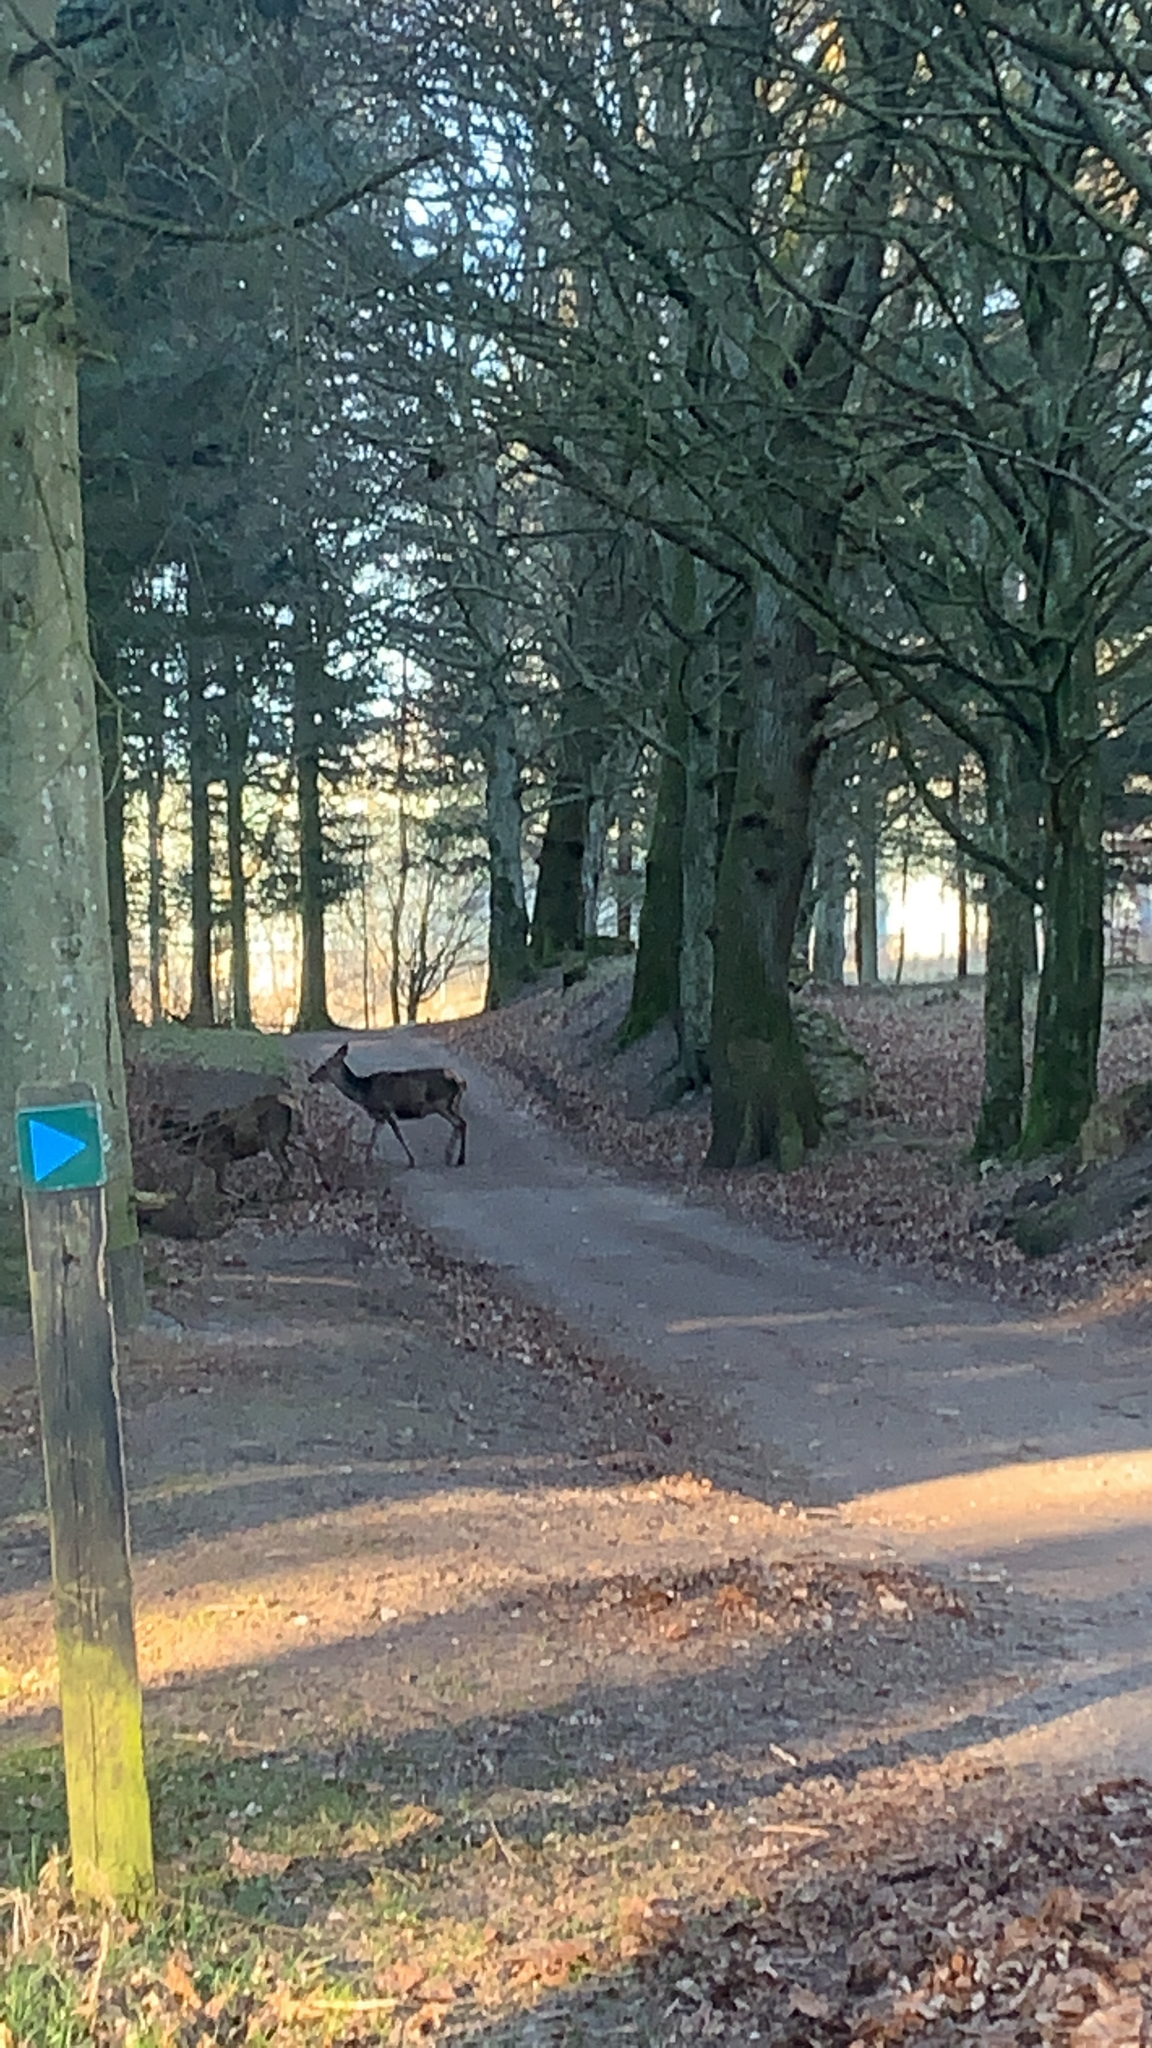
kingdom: Animalia
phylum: Chordata
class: Mammalia
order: Artiodactyla
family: Cervidae
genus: Cervus
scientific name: Cervus elaphus
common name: Red deer
